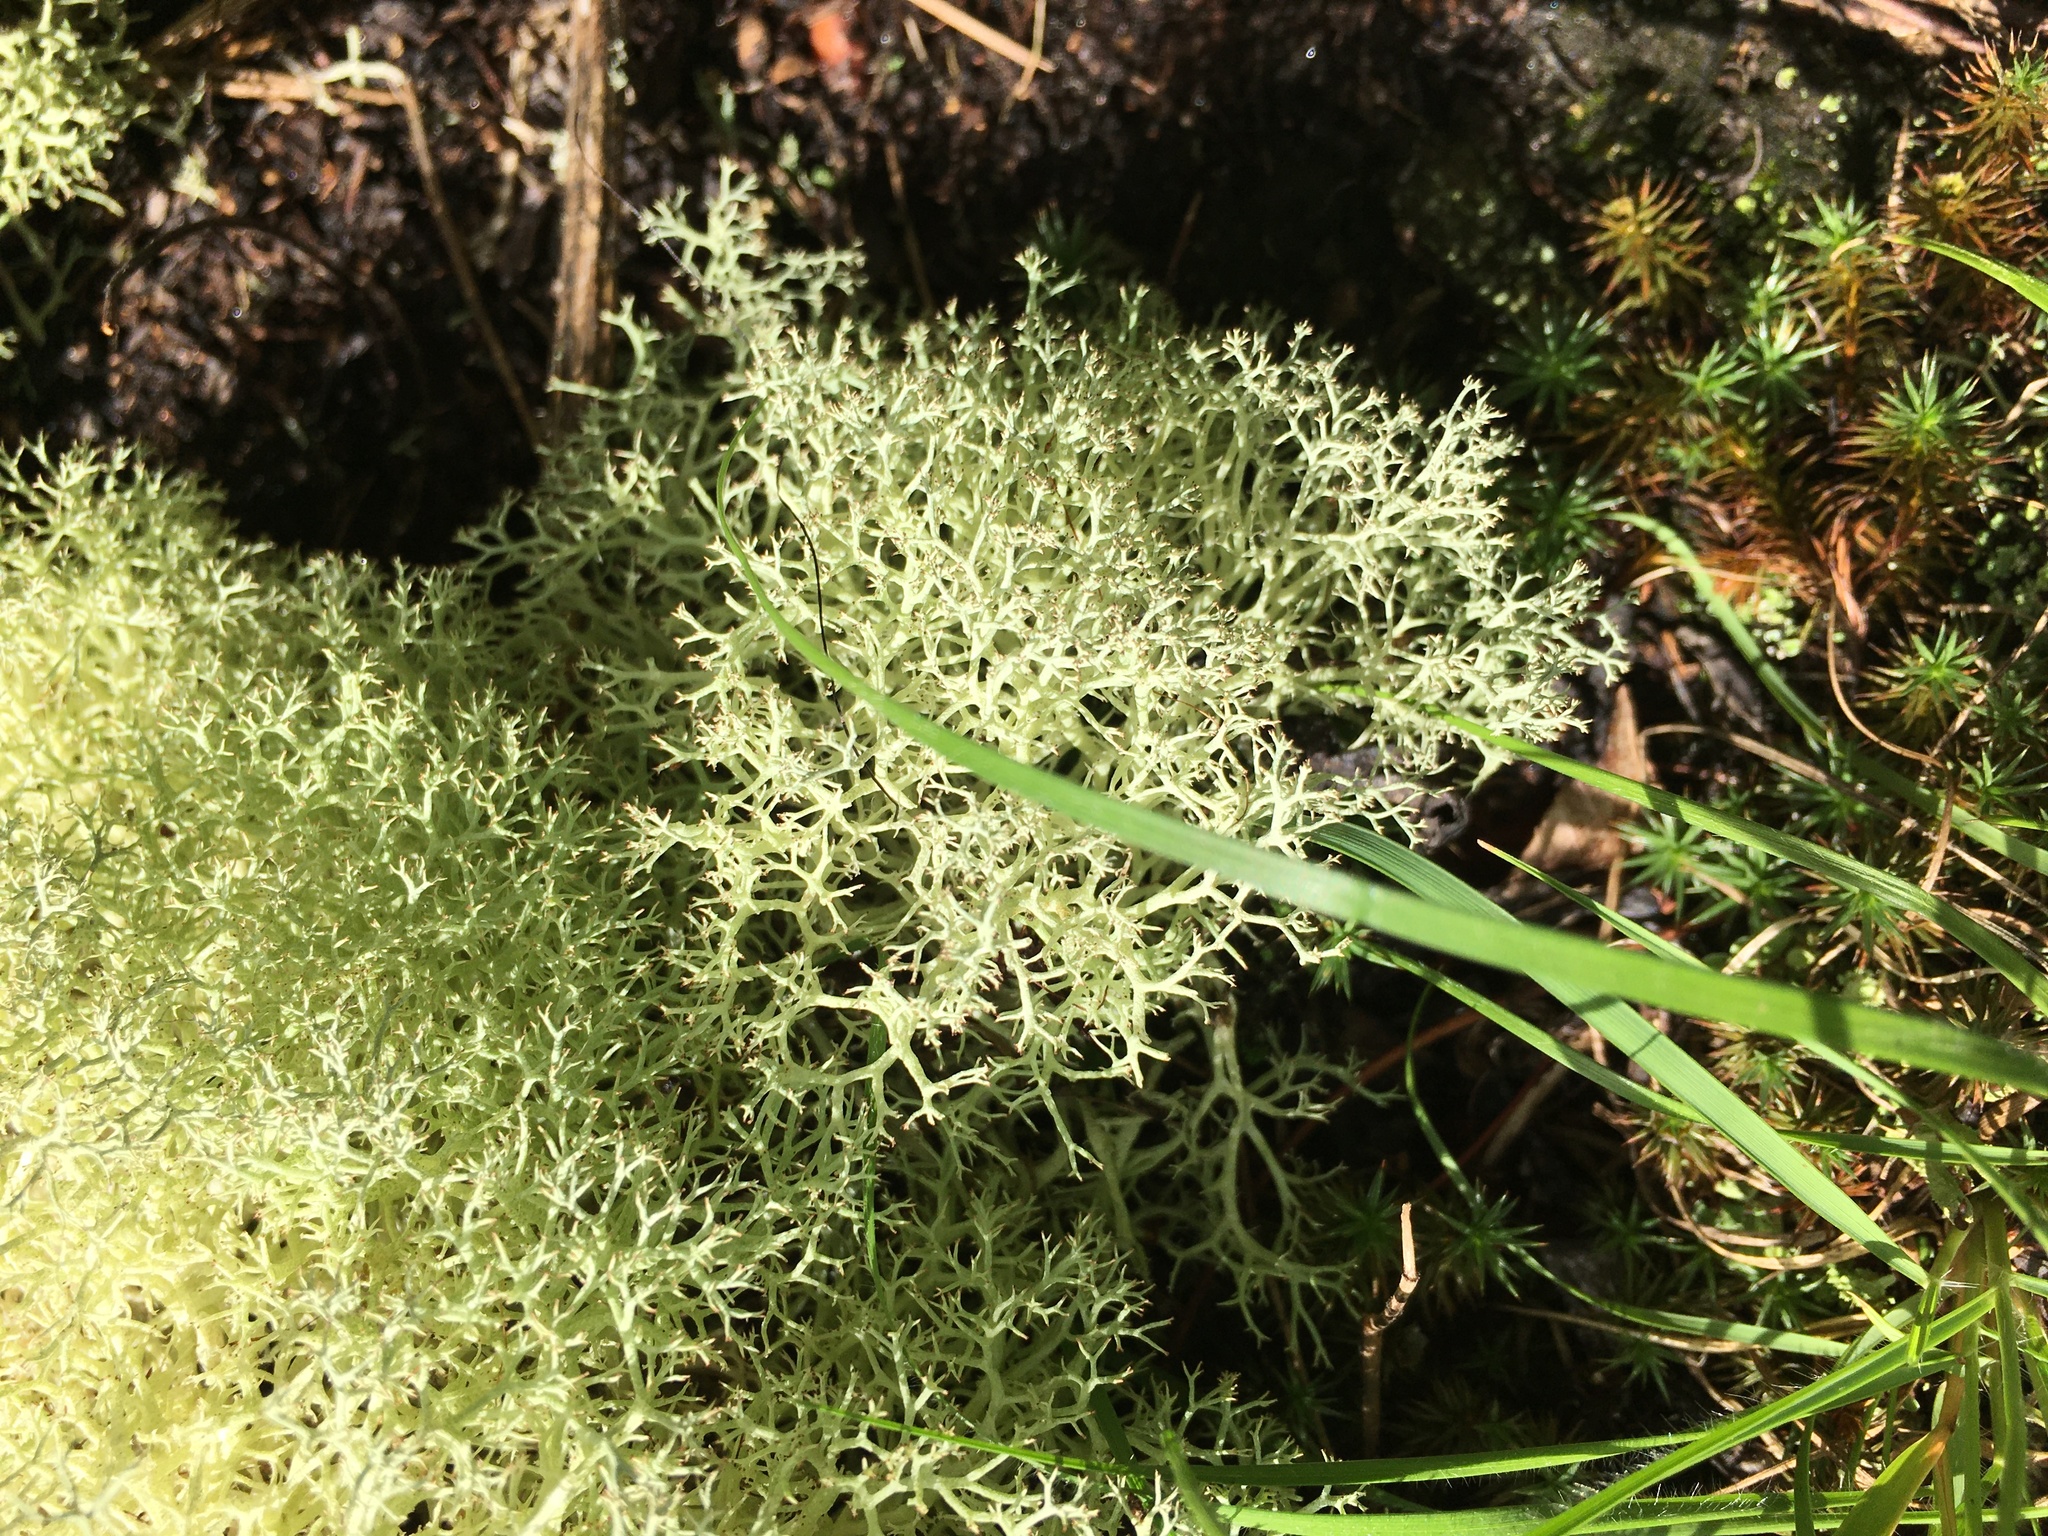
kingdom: Fungi
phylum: Ascomycota
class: Lecanoromycetes
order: Lecanorales
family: Cladoniaceae
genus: Cladonia
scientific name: Cladonia subtenuis
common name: Dixie reindeer lichen
